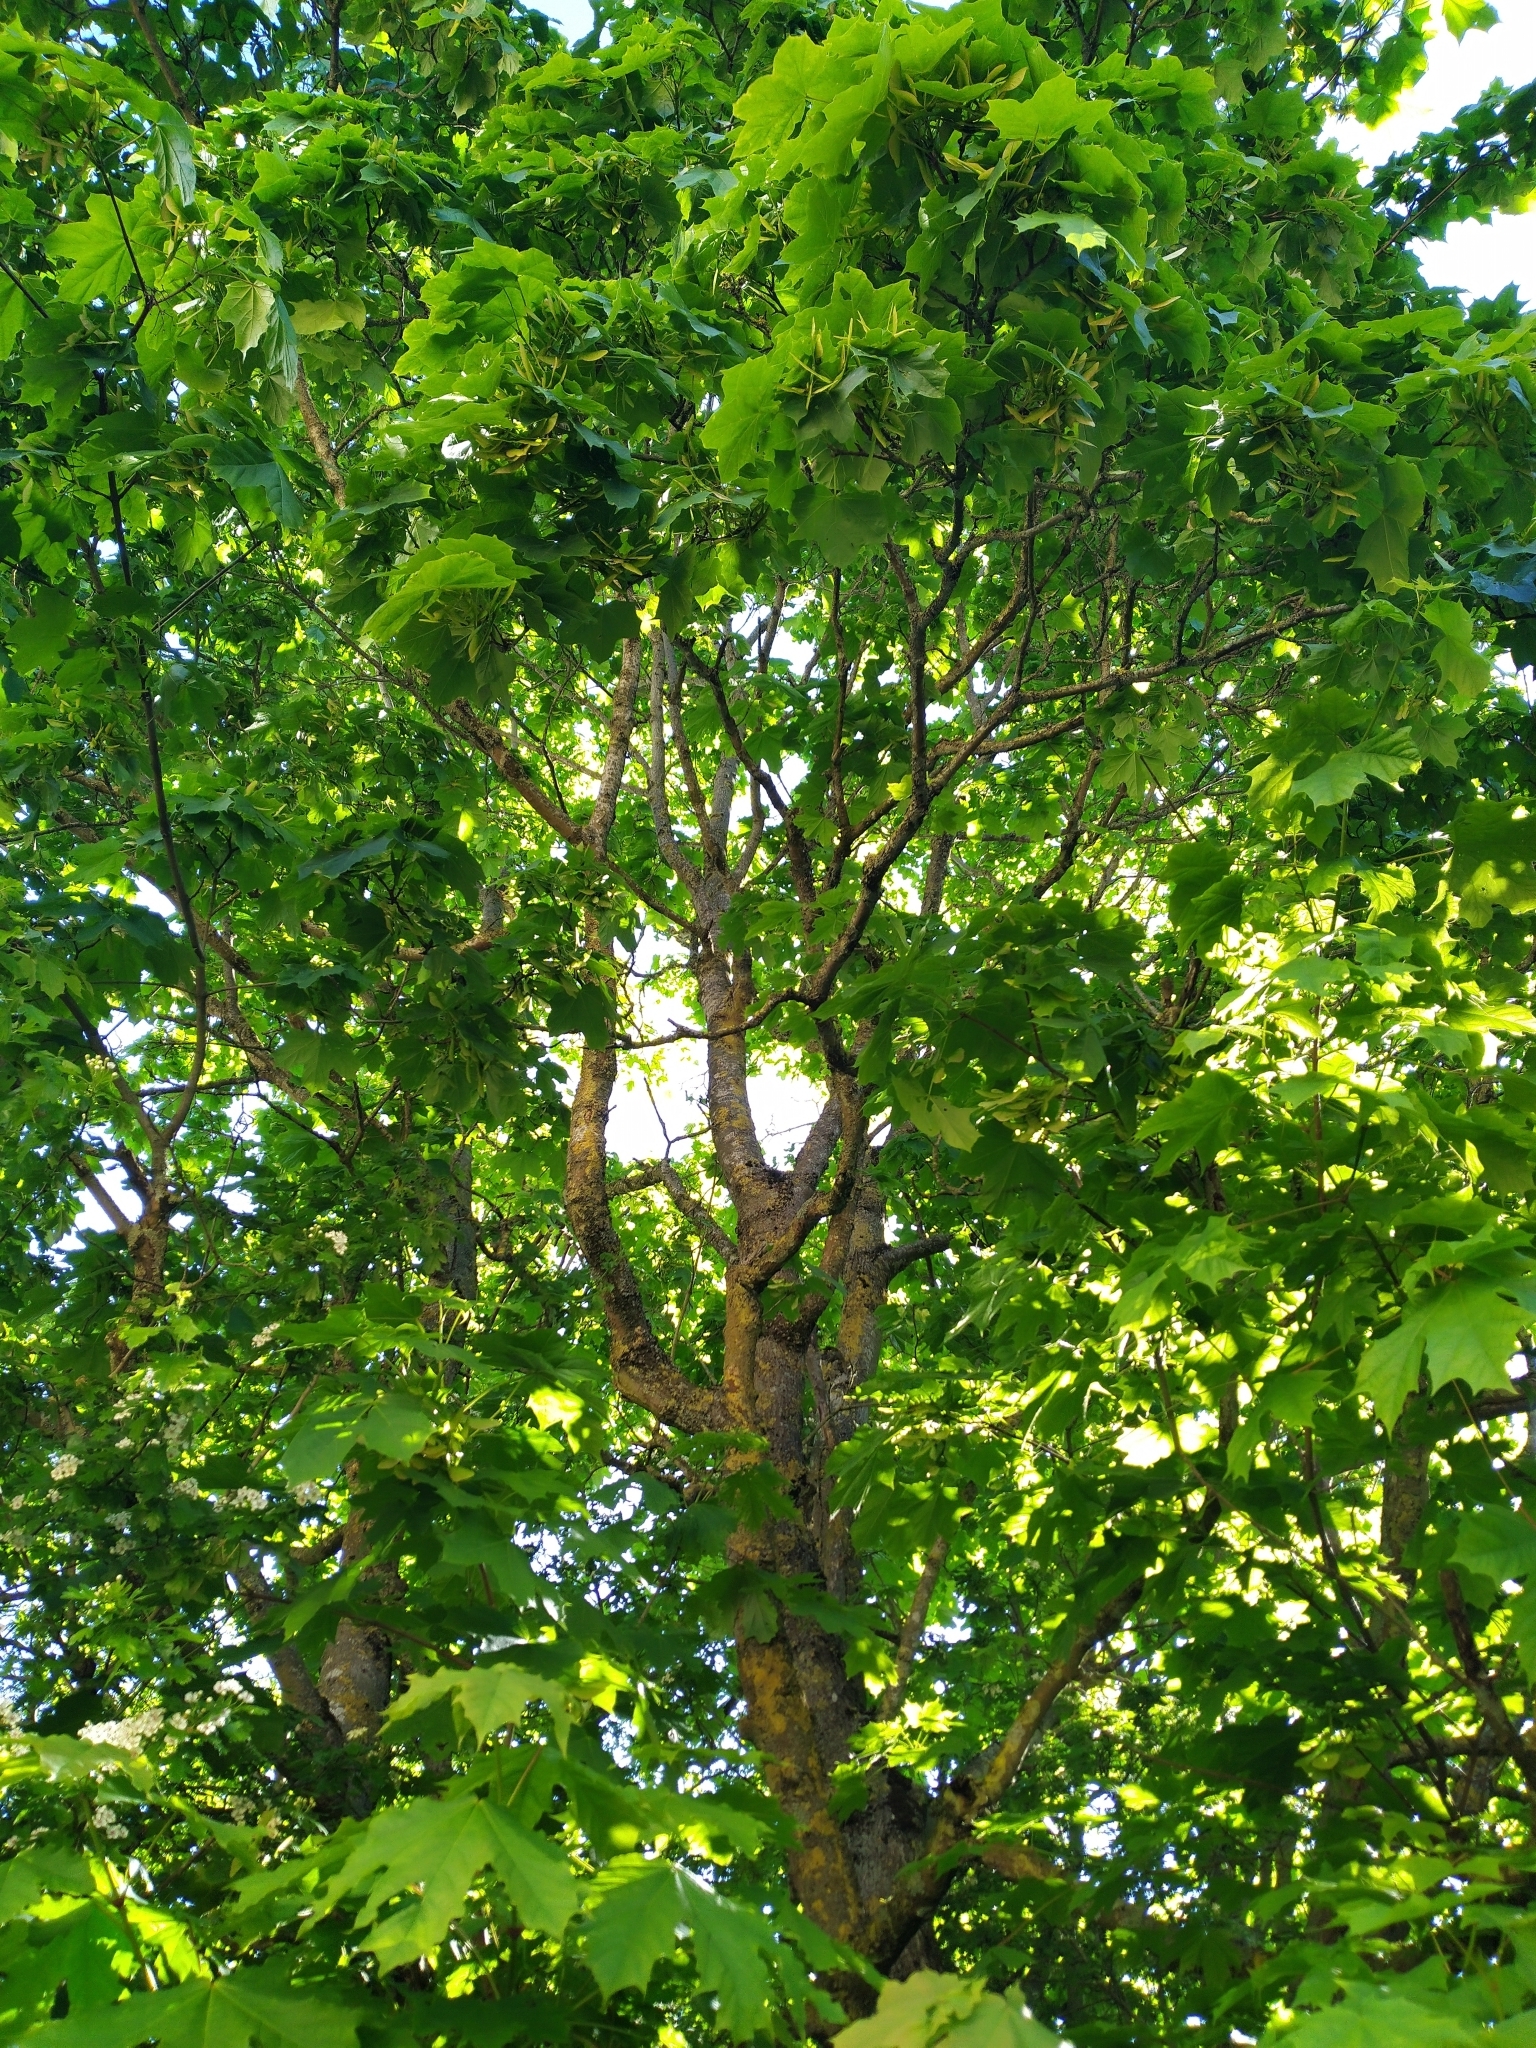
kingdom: Plantae
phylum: Tracheophyta
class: Magnoliopsida
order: Sapindales
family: Sapindaceae
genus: Acer
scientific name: Acer platanoides
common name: Norway maple
